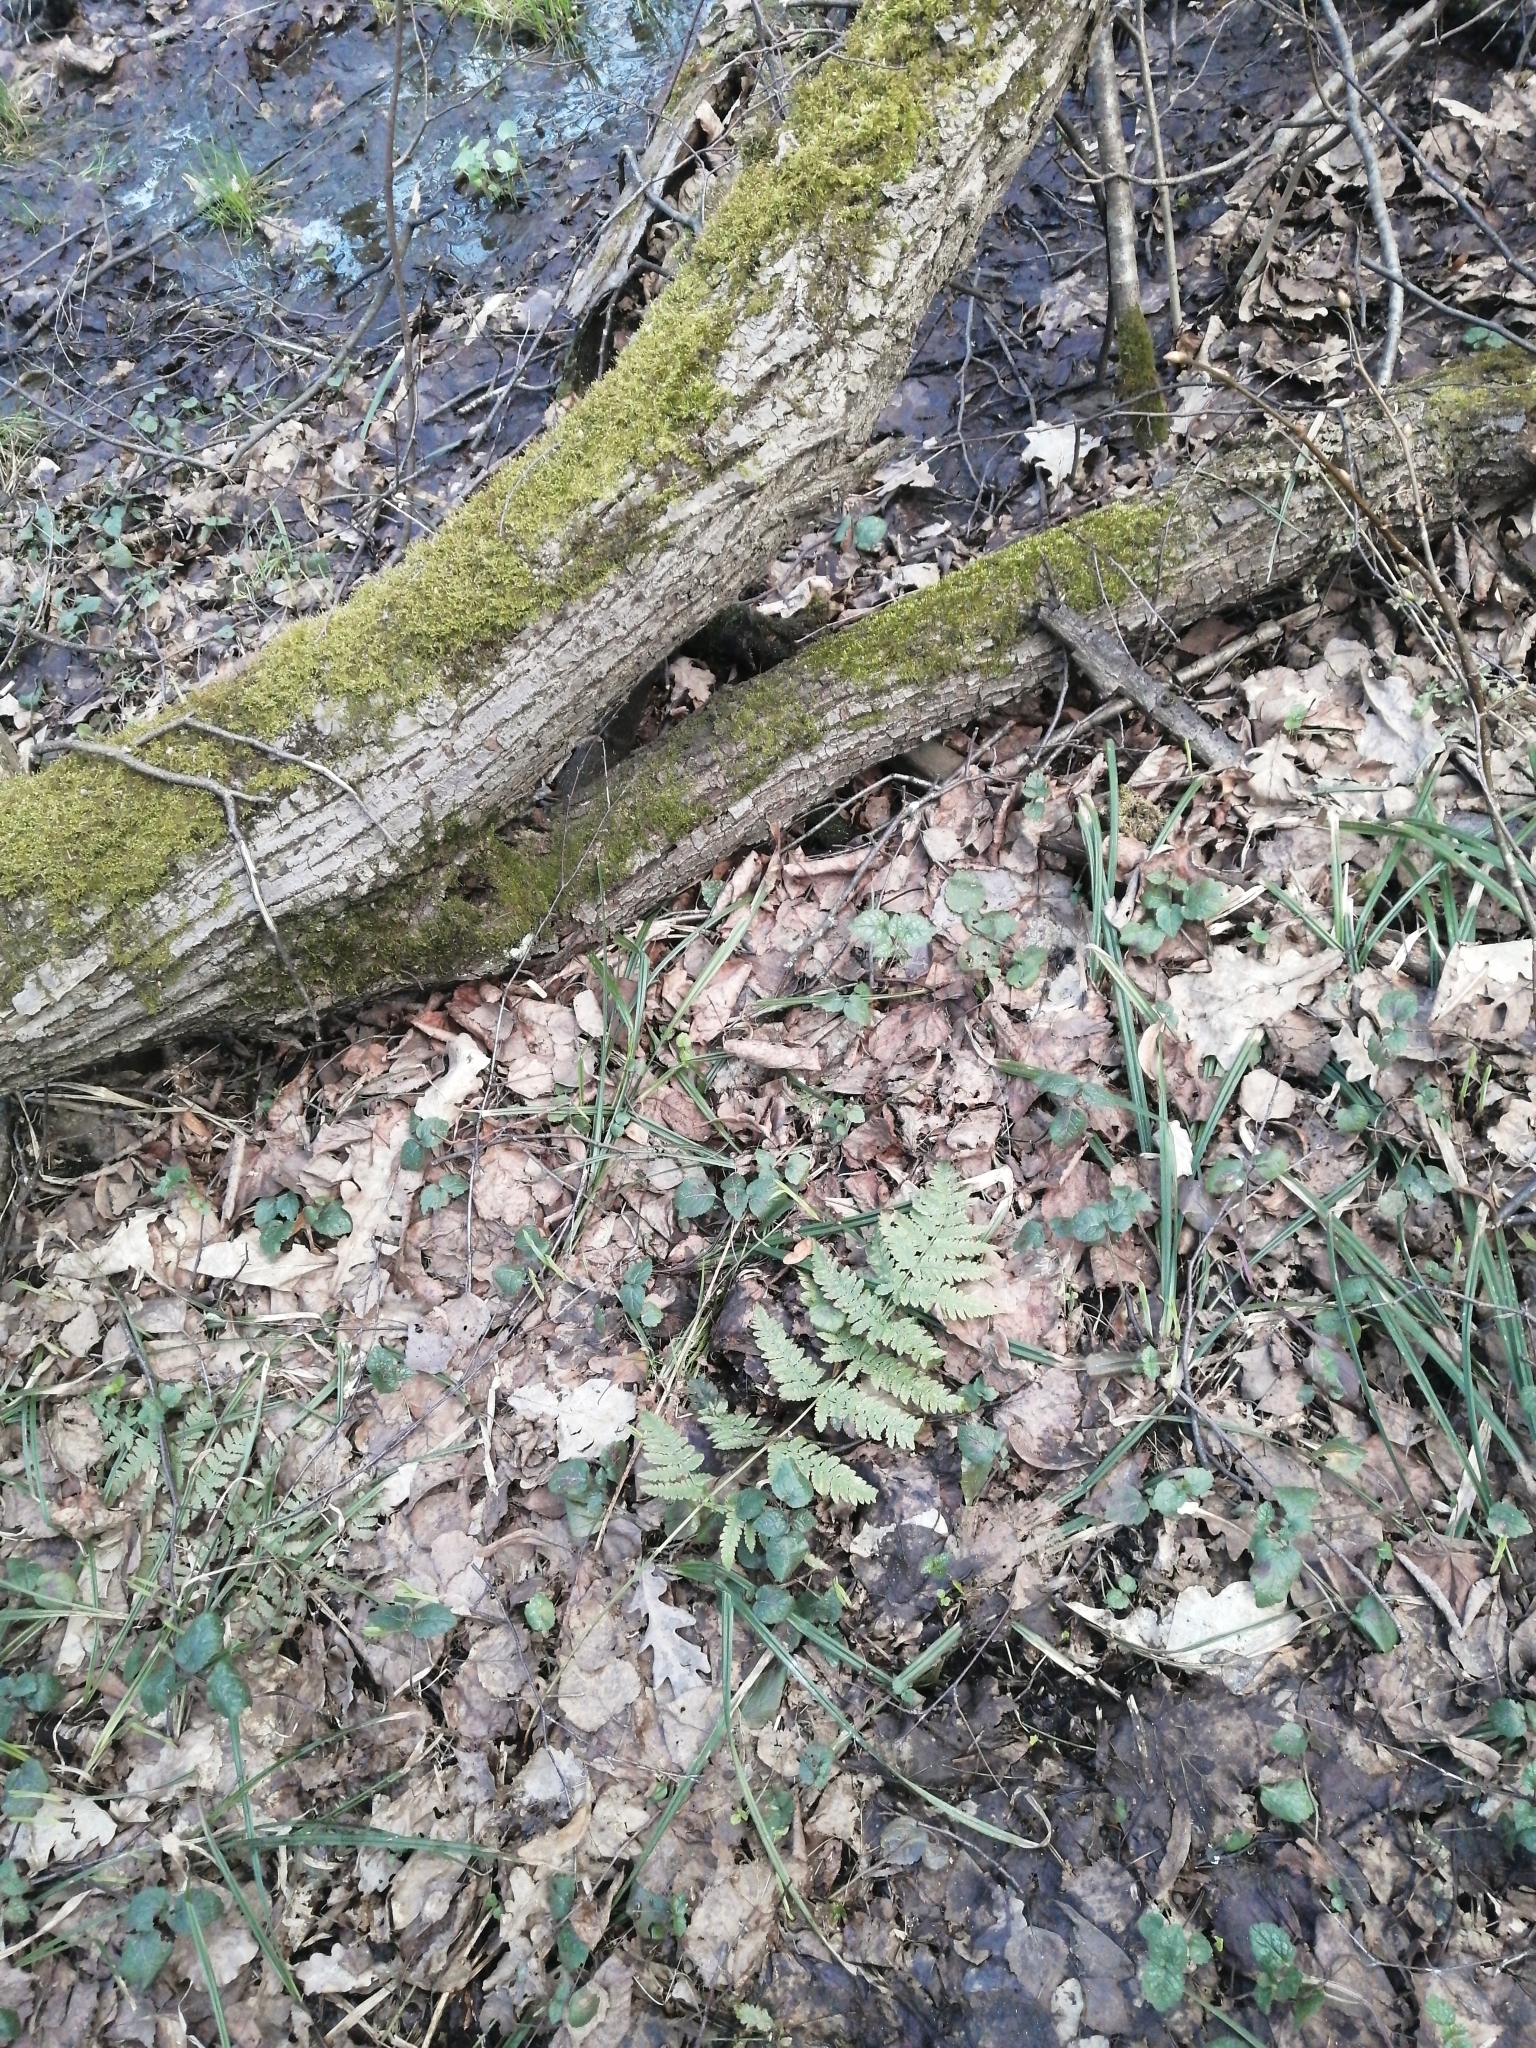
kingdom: Plantae
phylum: Tracheophyta
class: Polypodiopsida
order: Polypodiales
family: Dryopteridaceae
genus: Dryopteris
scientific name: Dryopteris carthusiana
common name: Narrow buckler-fern
